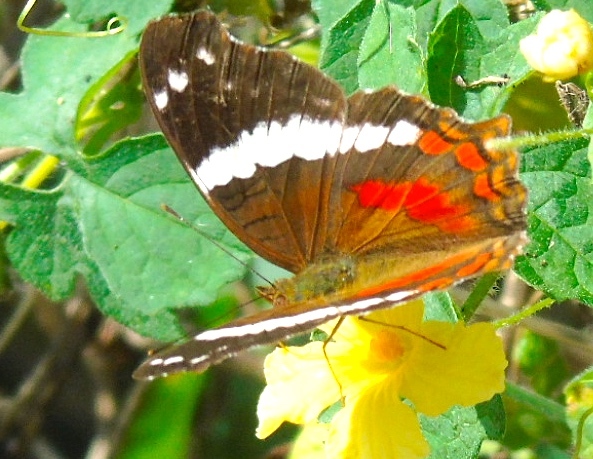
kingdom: Animalia
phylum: Arthropoda
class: Insecta
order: Lepidoptera
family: Nymphalidae
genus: Anartia
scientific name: Anartia fatima
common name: Banded peacock
